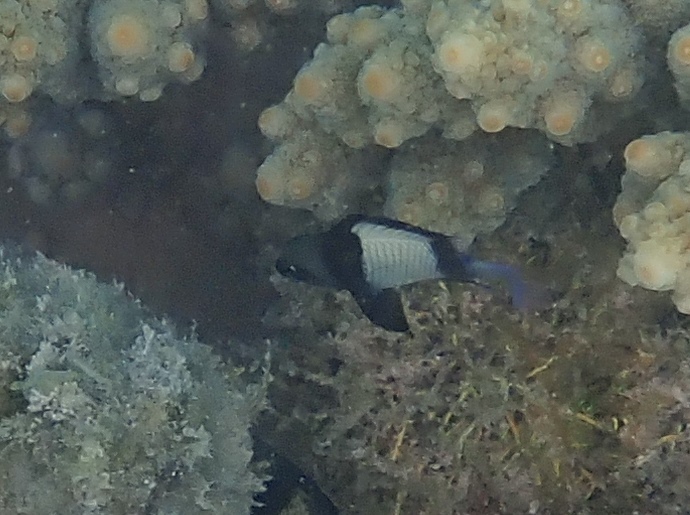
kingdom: Animalia
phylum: Chordata
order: Perciformes
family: Pomacentridae
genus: Dascyllus
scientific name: Dascyllus reticulatus
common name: Reticulated dascyllus
